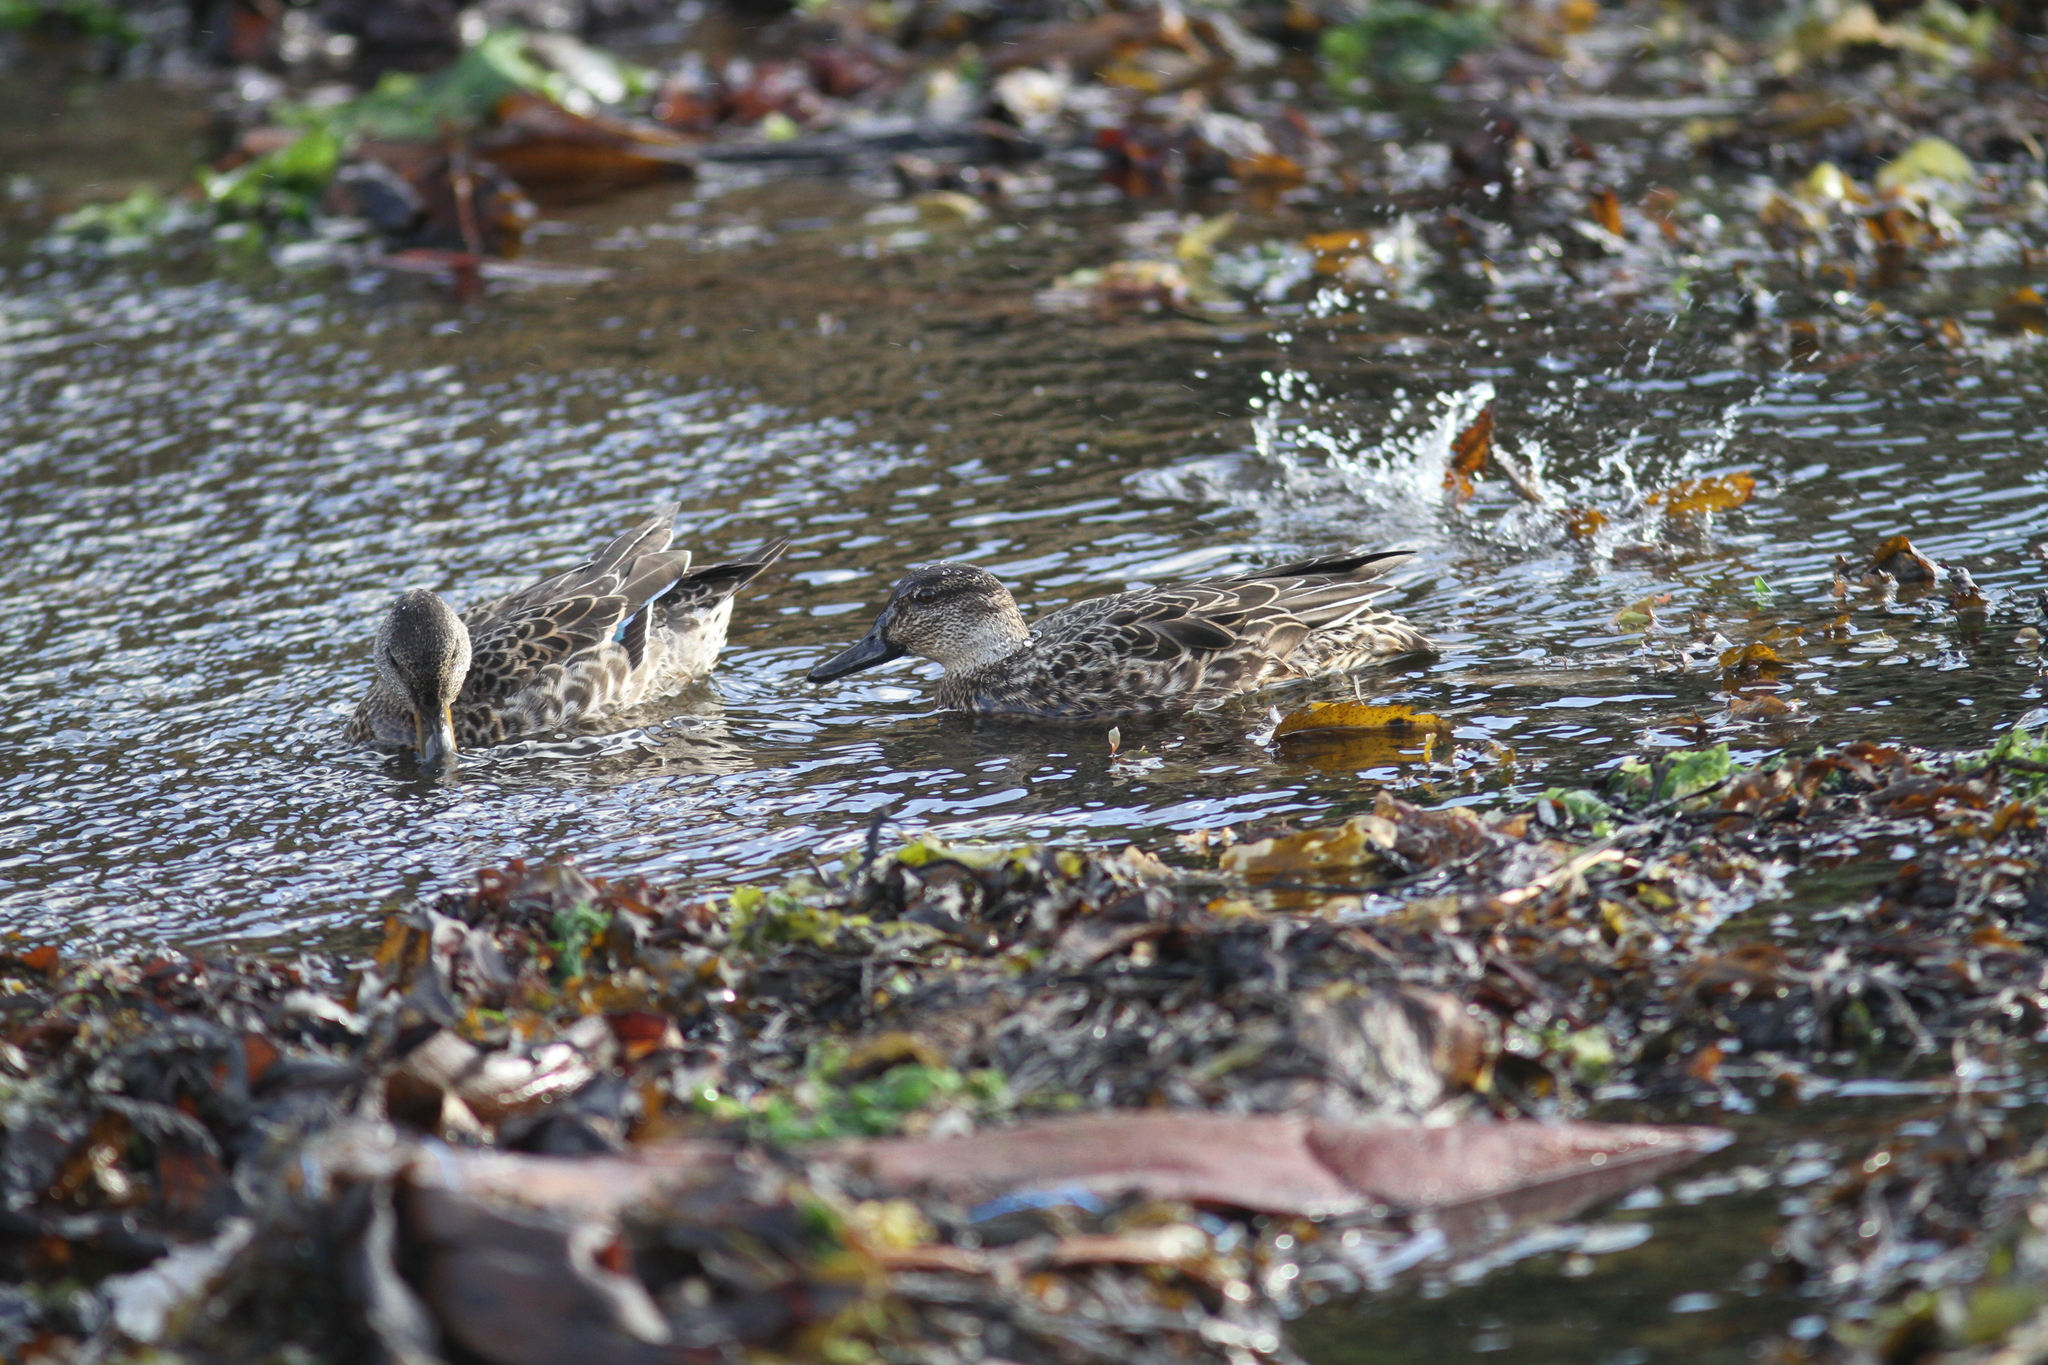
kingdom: Animalia
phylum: Chordata
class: Aves
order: Anseriformes
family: Anatidae
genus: Anas
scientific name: Anas crecca
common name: Eurasian teal
